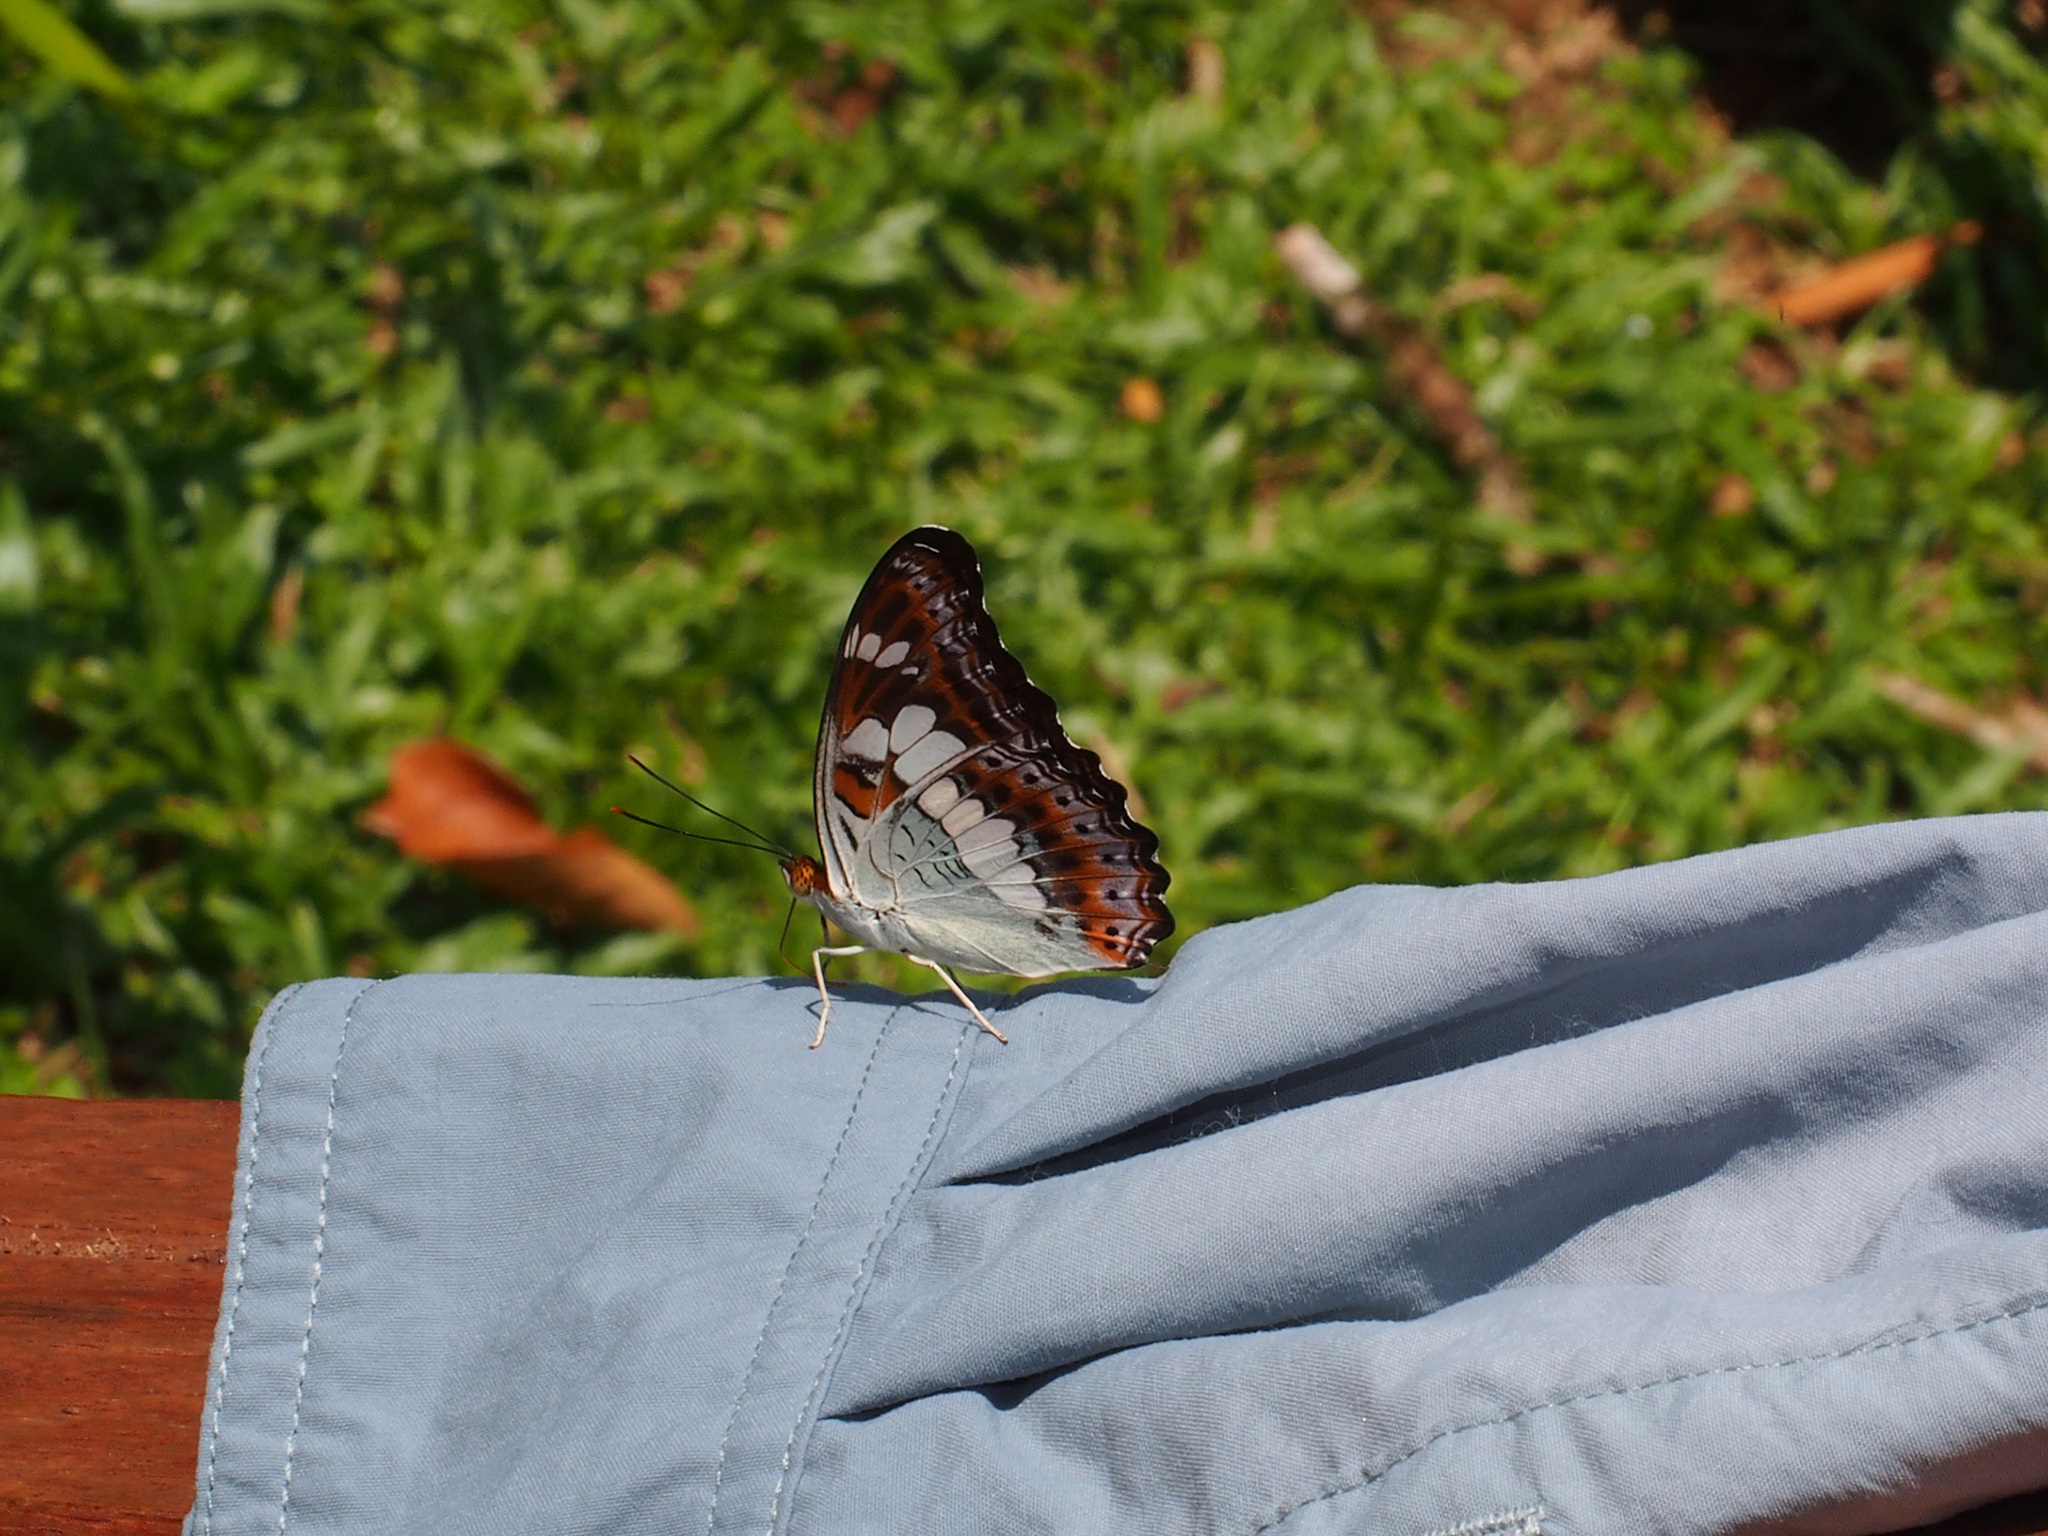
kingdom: Animalia
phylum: Arthropoda
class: Insecta
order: Lepidoptera
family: Nymphalidae
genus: Limenitis
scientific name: Limenitis Moduza procris
